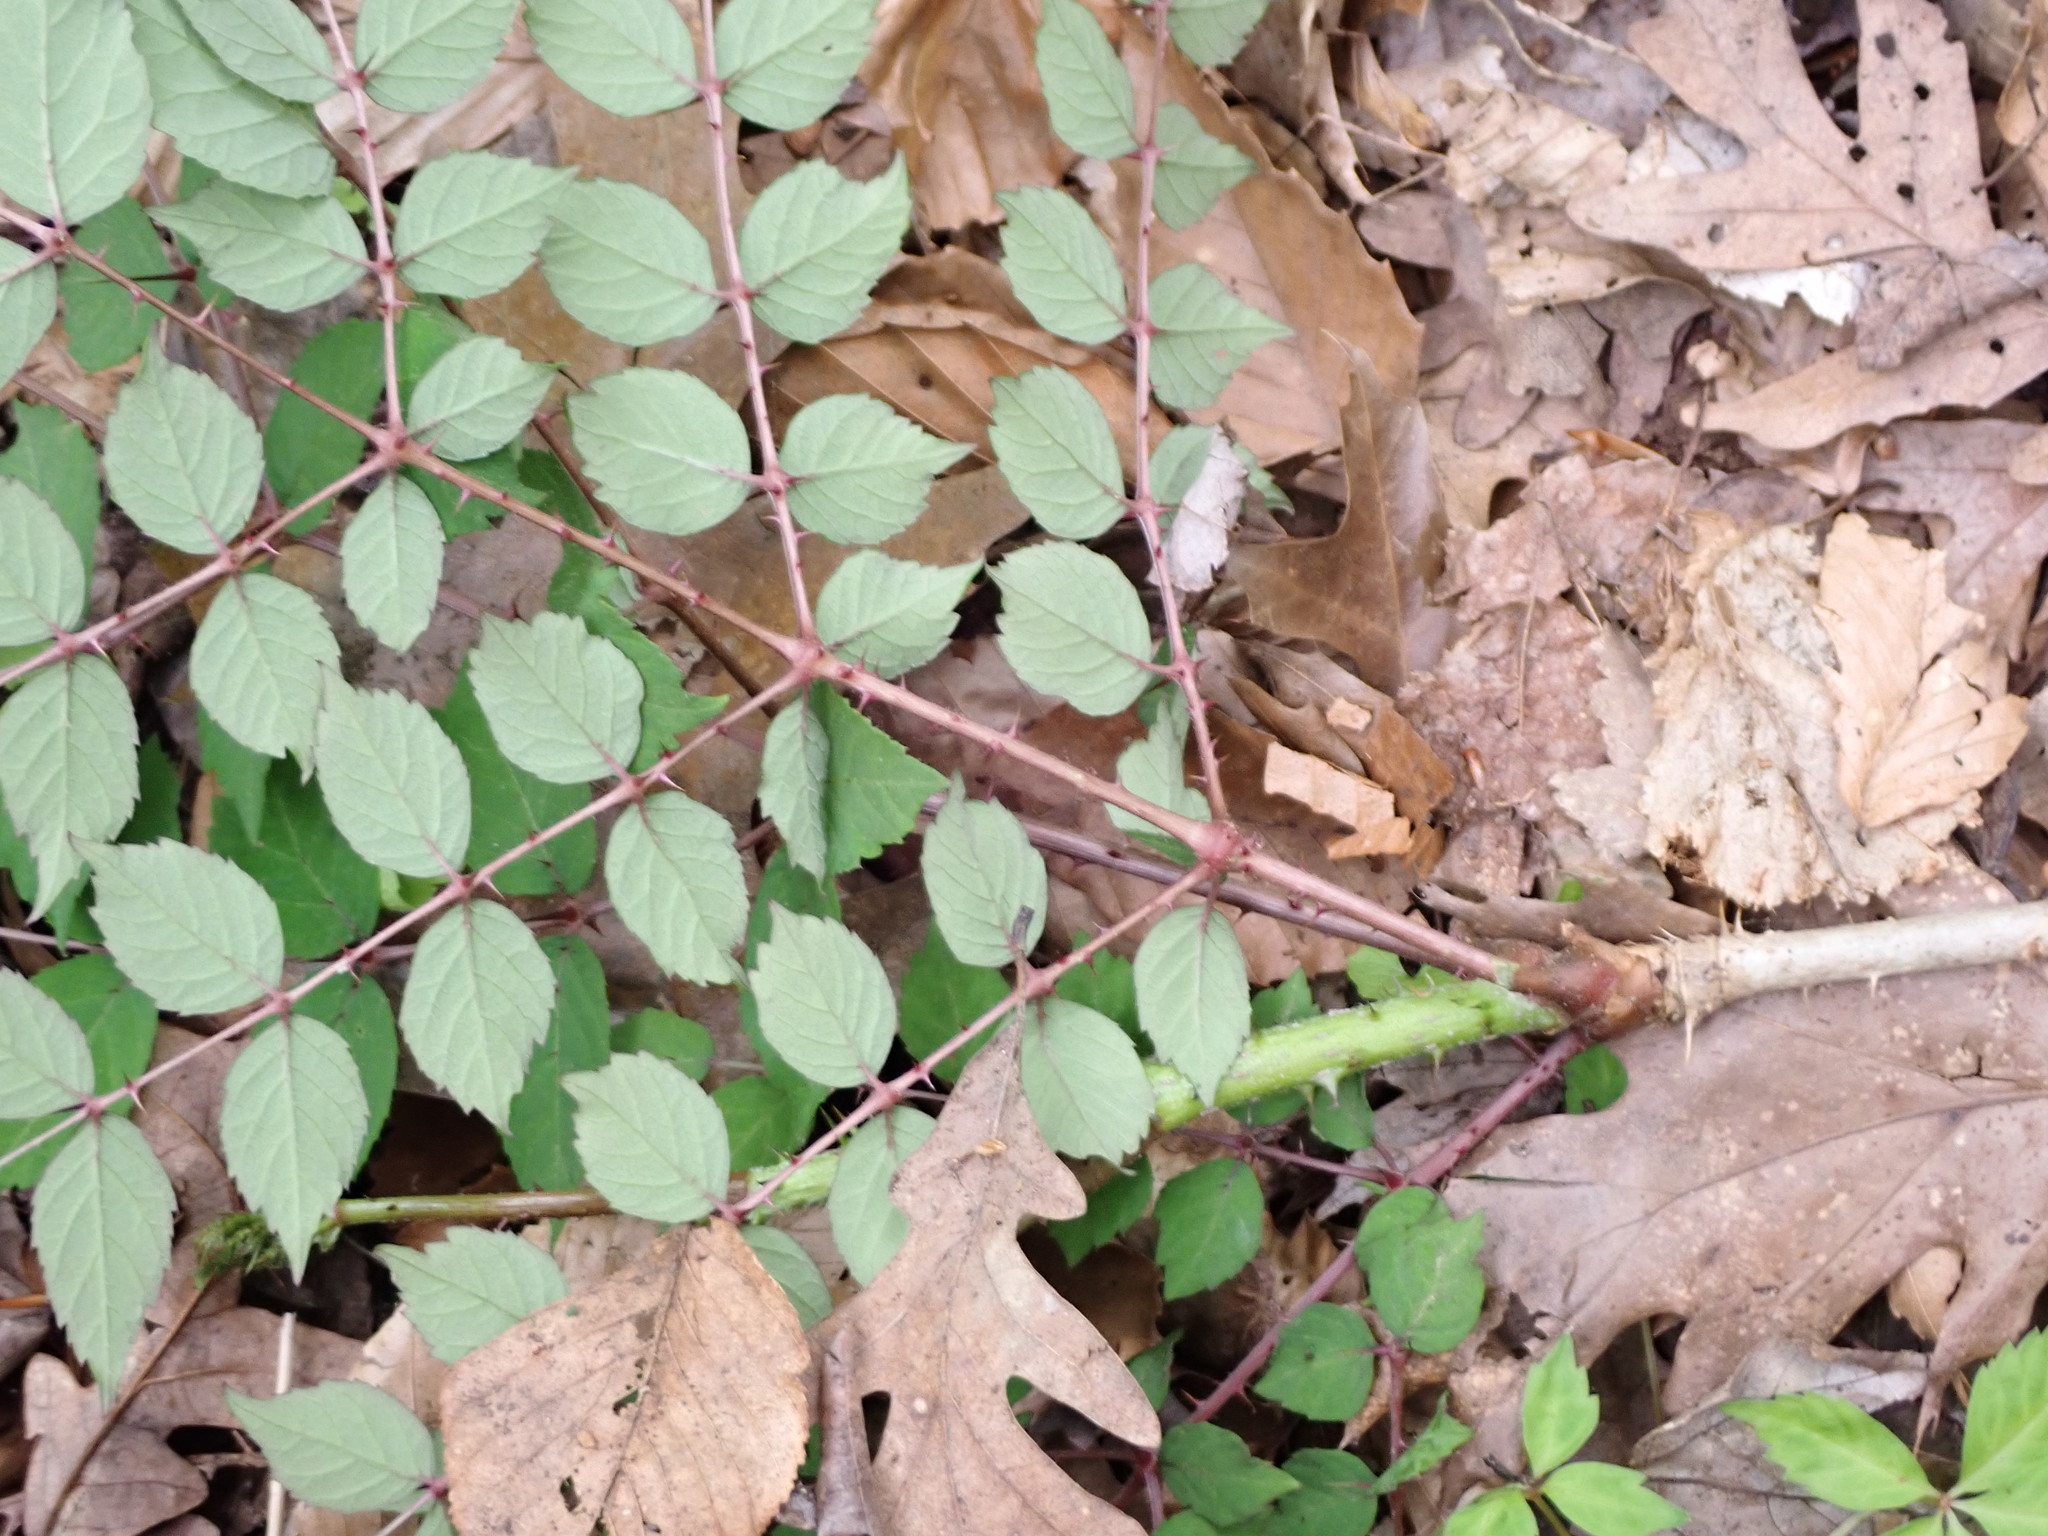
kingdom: Plantae
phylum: Tracheophyta
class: Magnoliopsida
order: Apiales
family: Araliaceae
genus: Aralia
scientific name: Aralia elata
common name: Japanese angelica-tree
